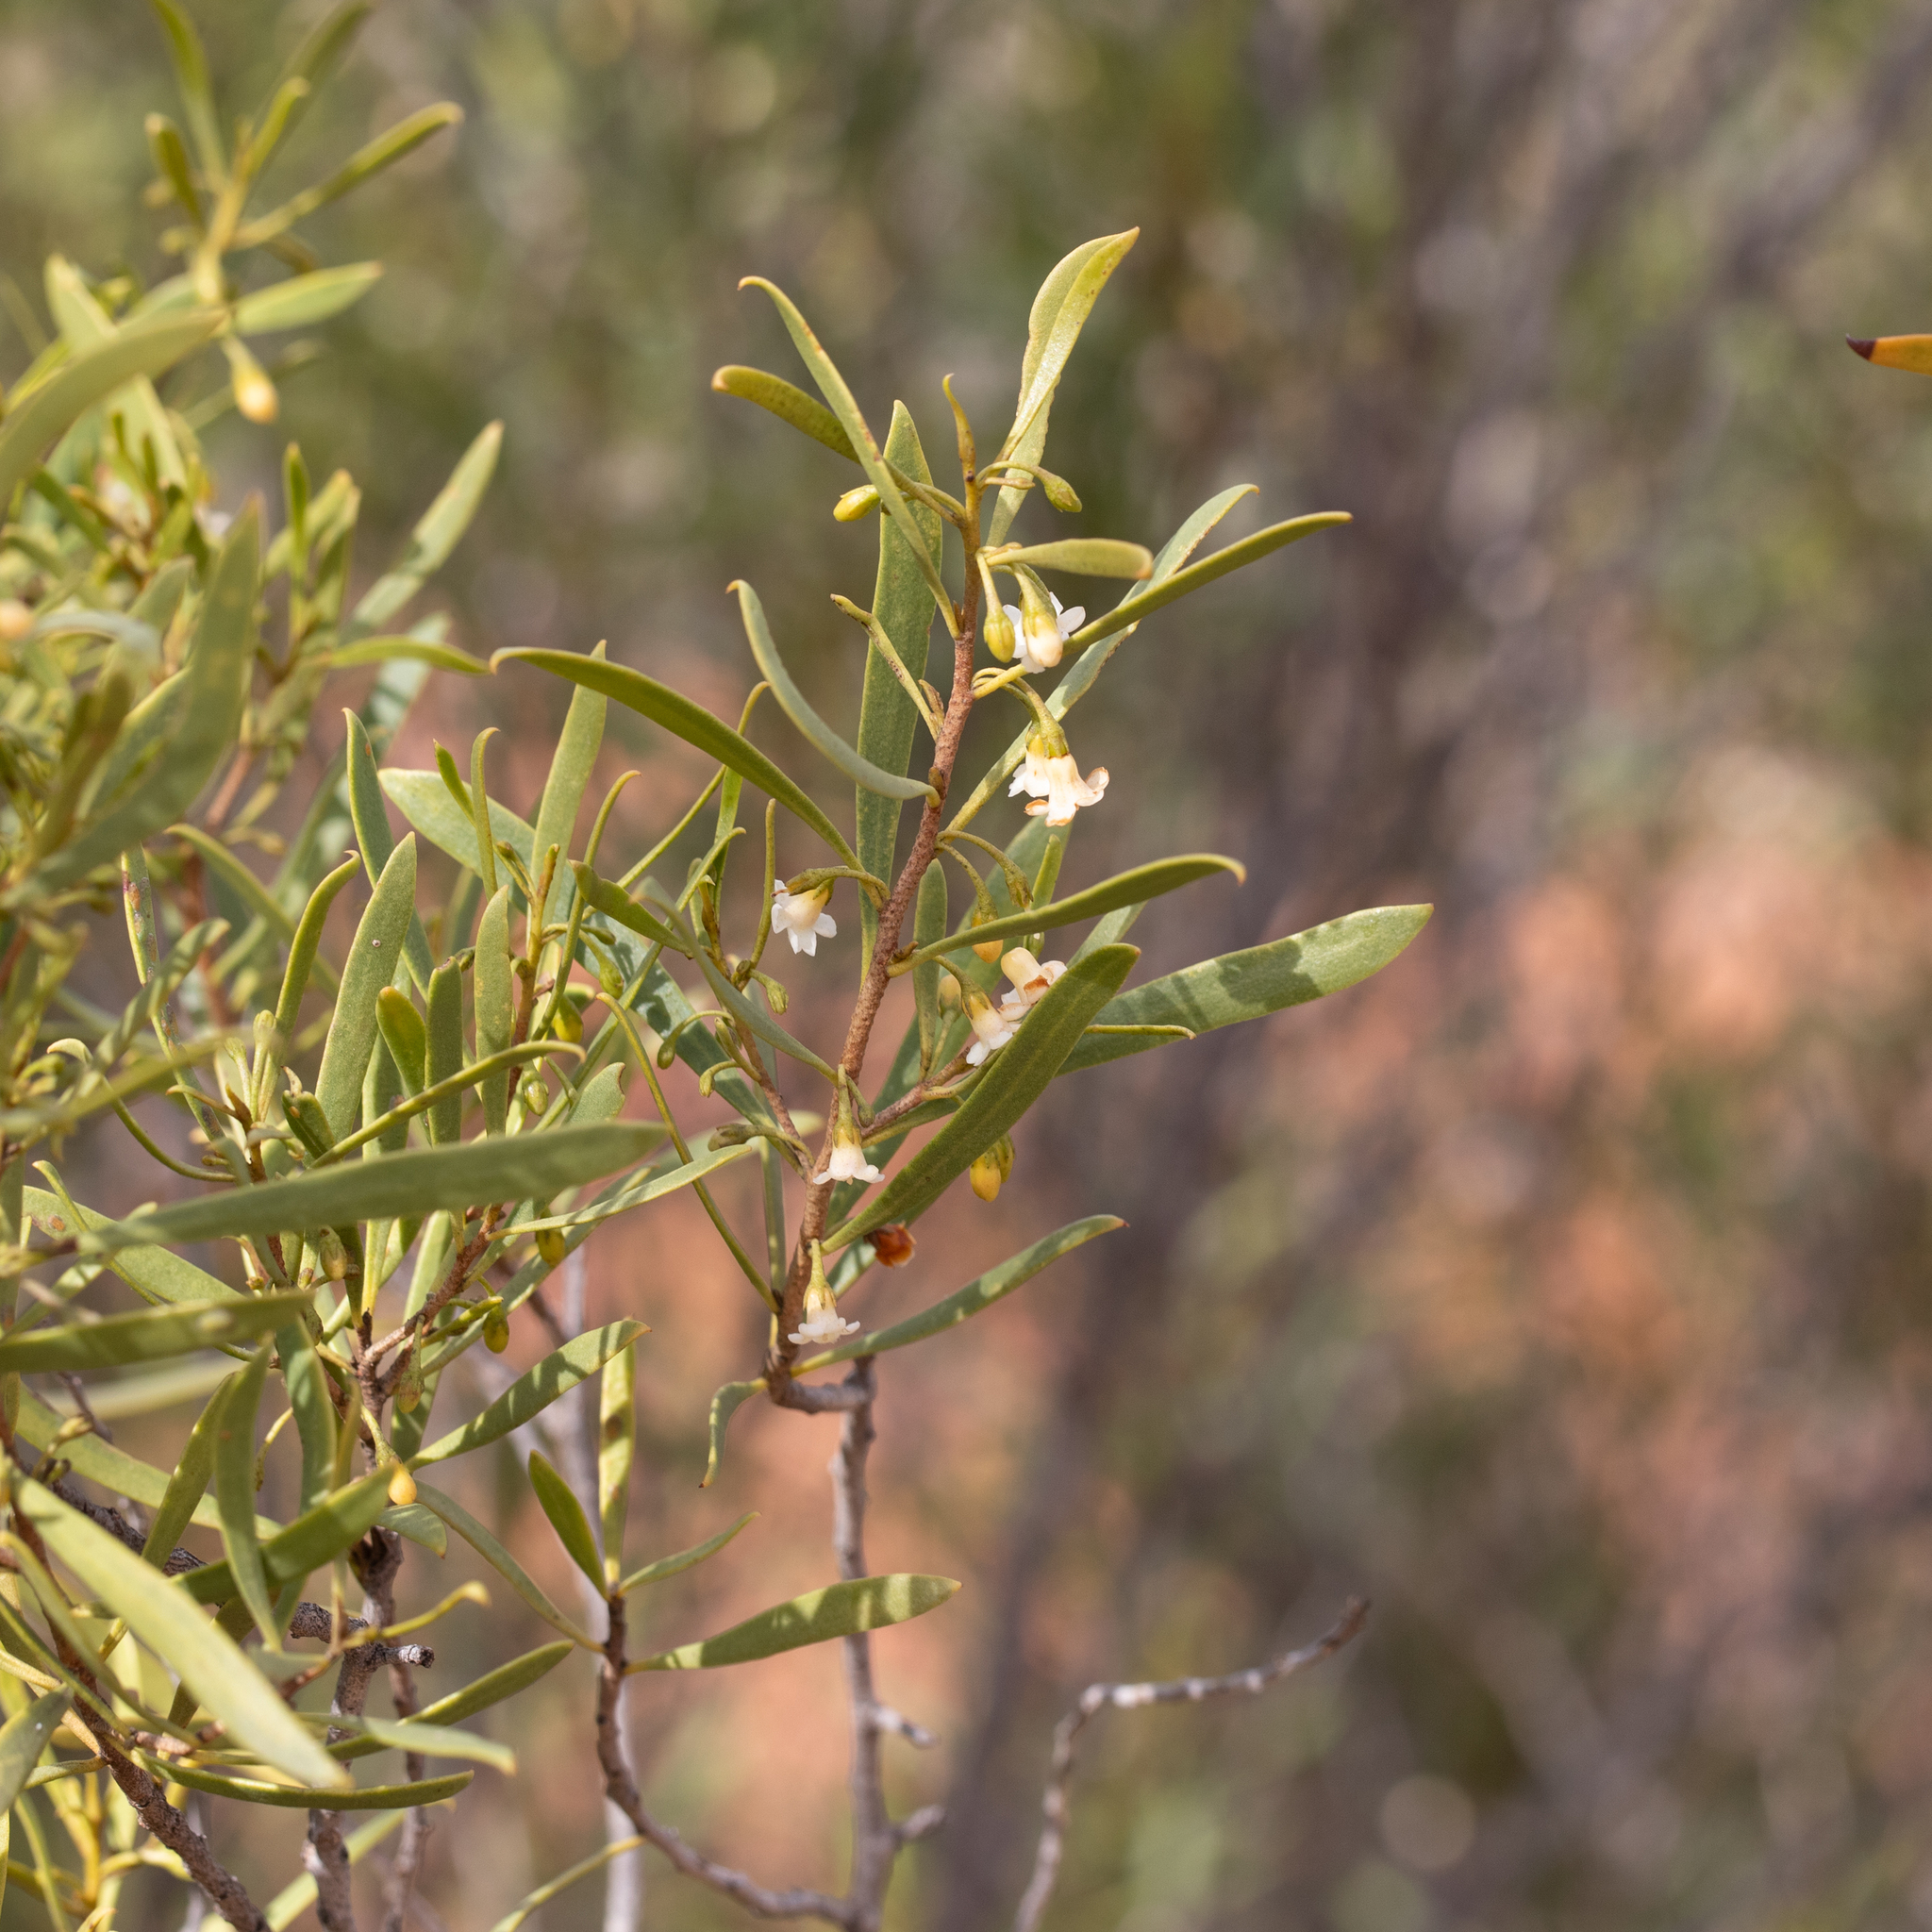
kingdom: Plantae
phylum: Tracheophyta
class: Magnoliopsida
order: Lamiales
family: Scrophulariaceae
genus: Eremophila
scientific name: Eremophila deserti
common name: Ellangowan-poisonbush
